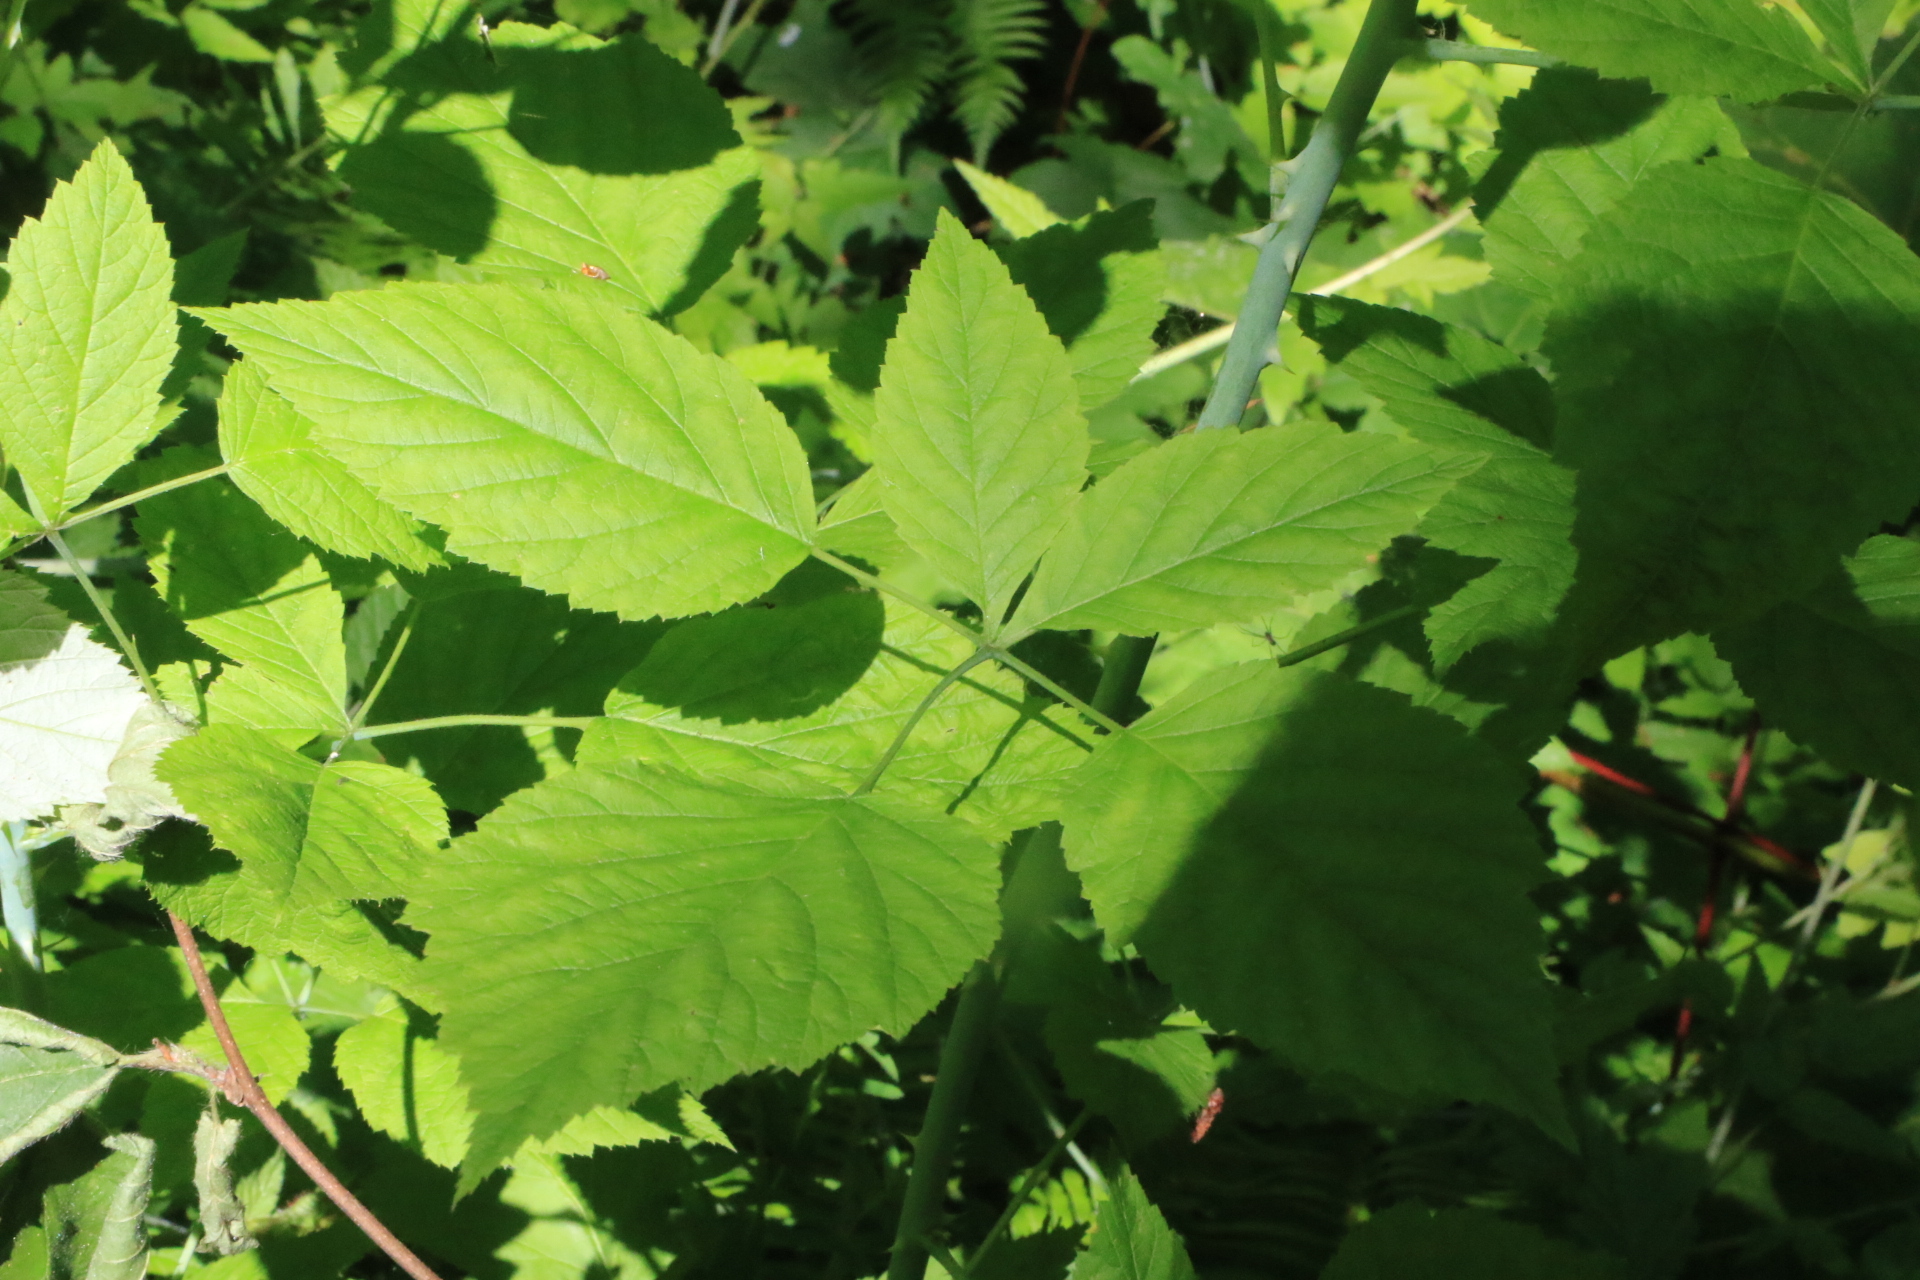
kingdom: Plantae
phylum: Tracheophyta
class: Magnoliopsida
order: Rosales
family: Rosaceae
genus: Rubus
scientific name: Rubus leucodermis
